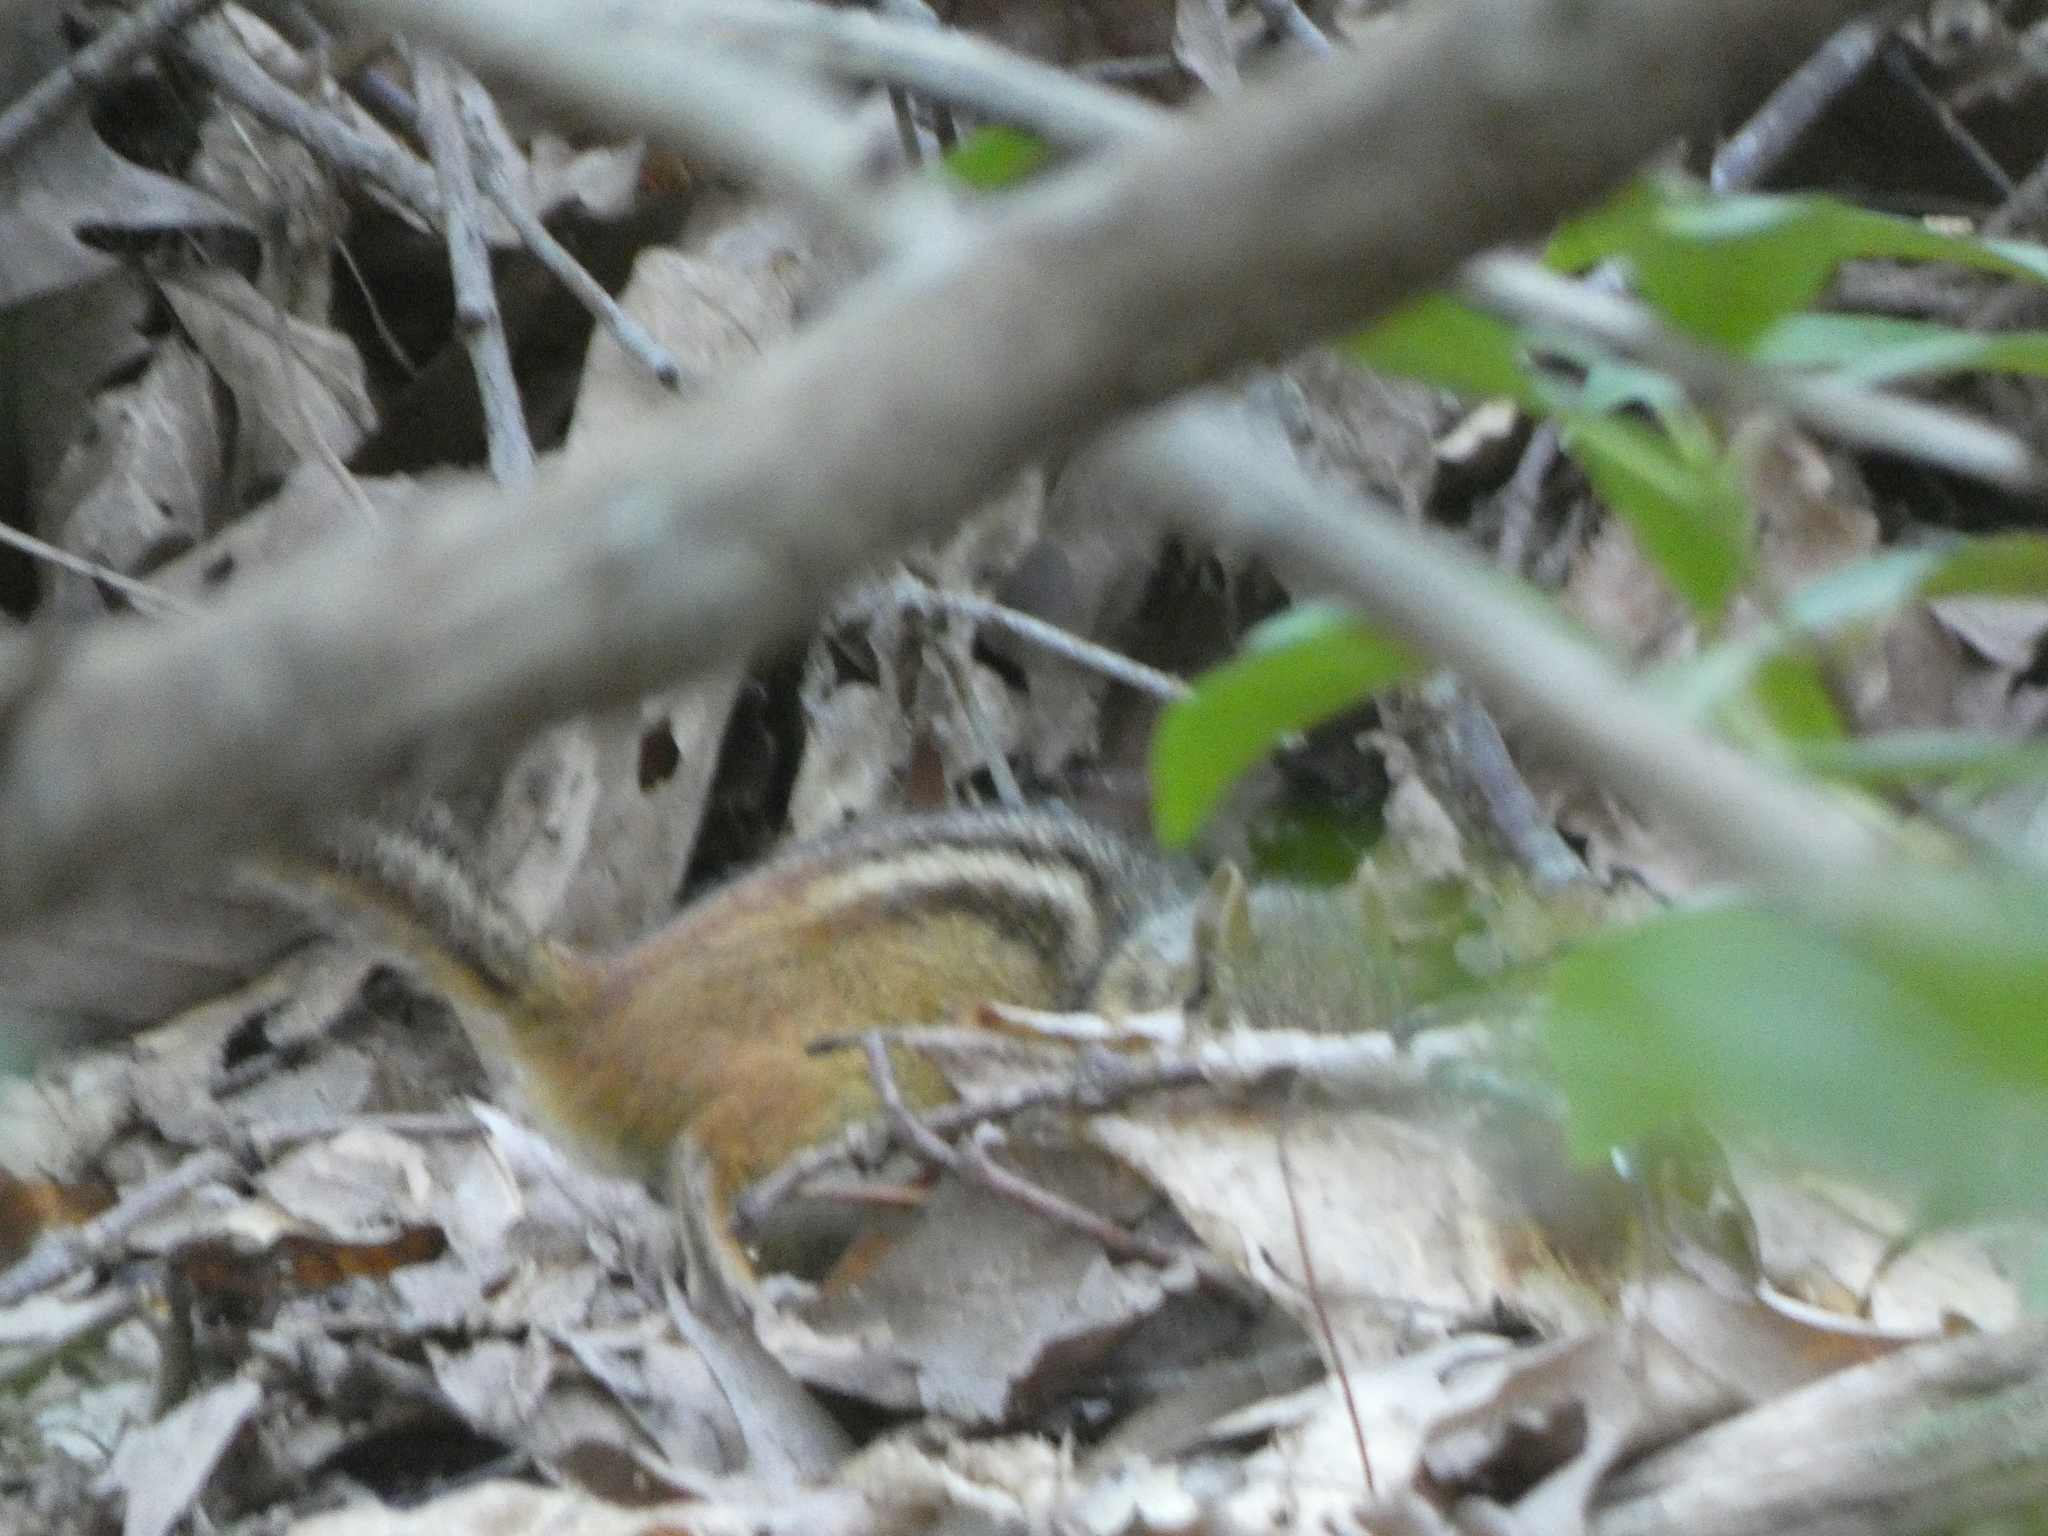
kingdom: Animalia
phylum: Chordata
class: Mammalia
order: Rodentia
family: Sciuridae
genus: Tamias
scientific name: Tamias striatus
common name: Eastern chipmunk
